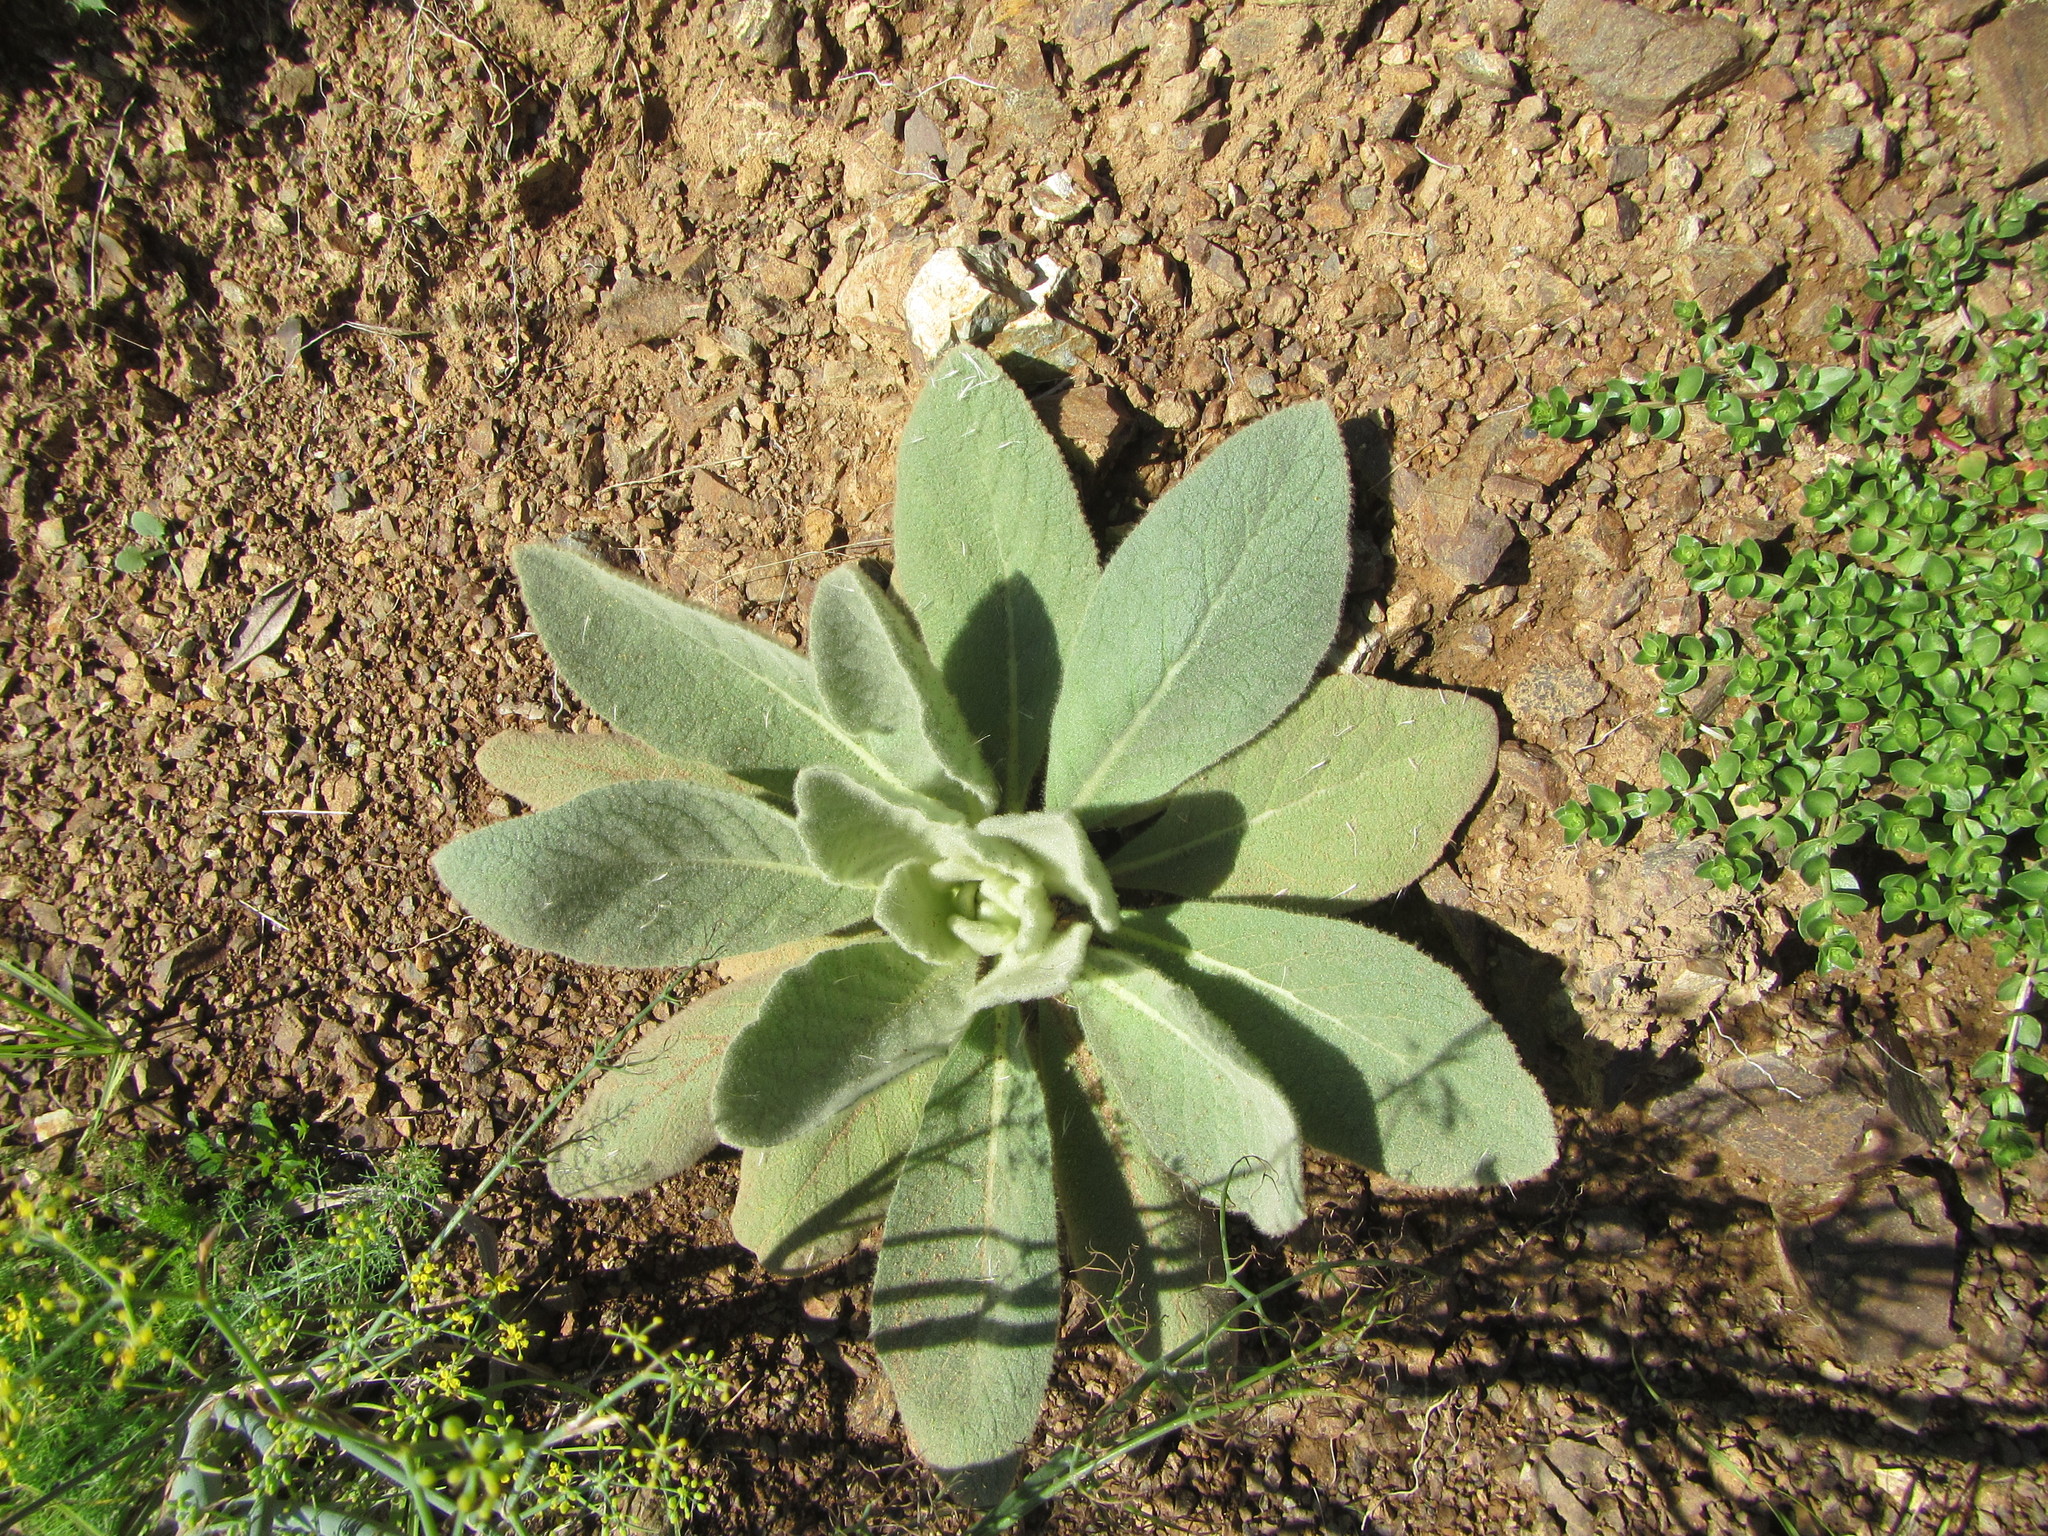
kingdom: Plantae
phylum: Tracheophyta
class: Magnoliopsida
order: Lamiales
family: Scrophulariaceae
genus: Verbascum
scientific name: Verbascum thapsus
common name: Common mullein
